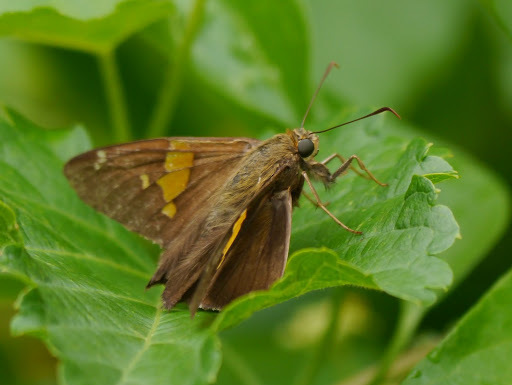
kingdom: Animalia
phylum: Arthropoda
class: Insecta
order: Lepidoptera
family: Hesperiidae
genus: Epargyreus
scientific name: Epargyreus clarus
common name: Silver-spotted skipper
